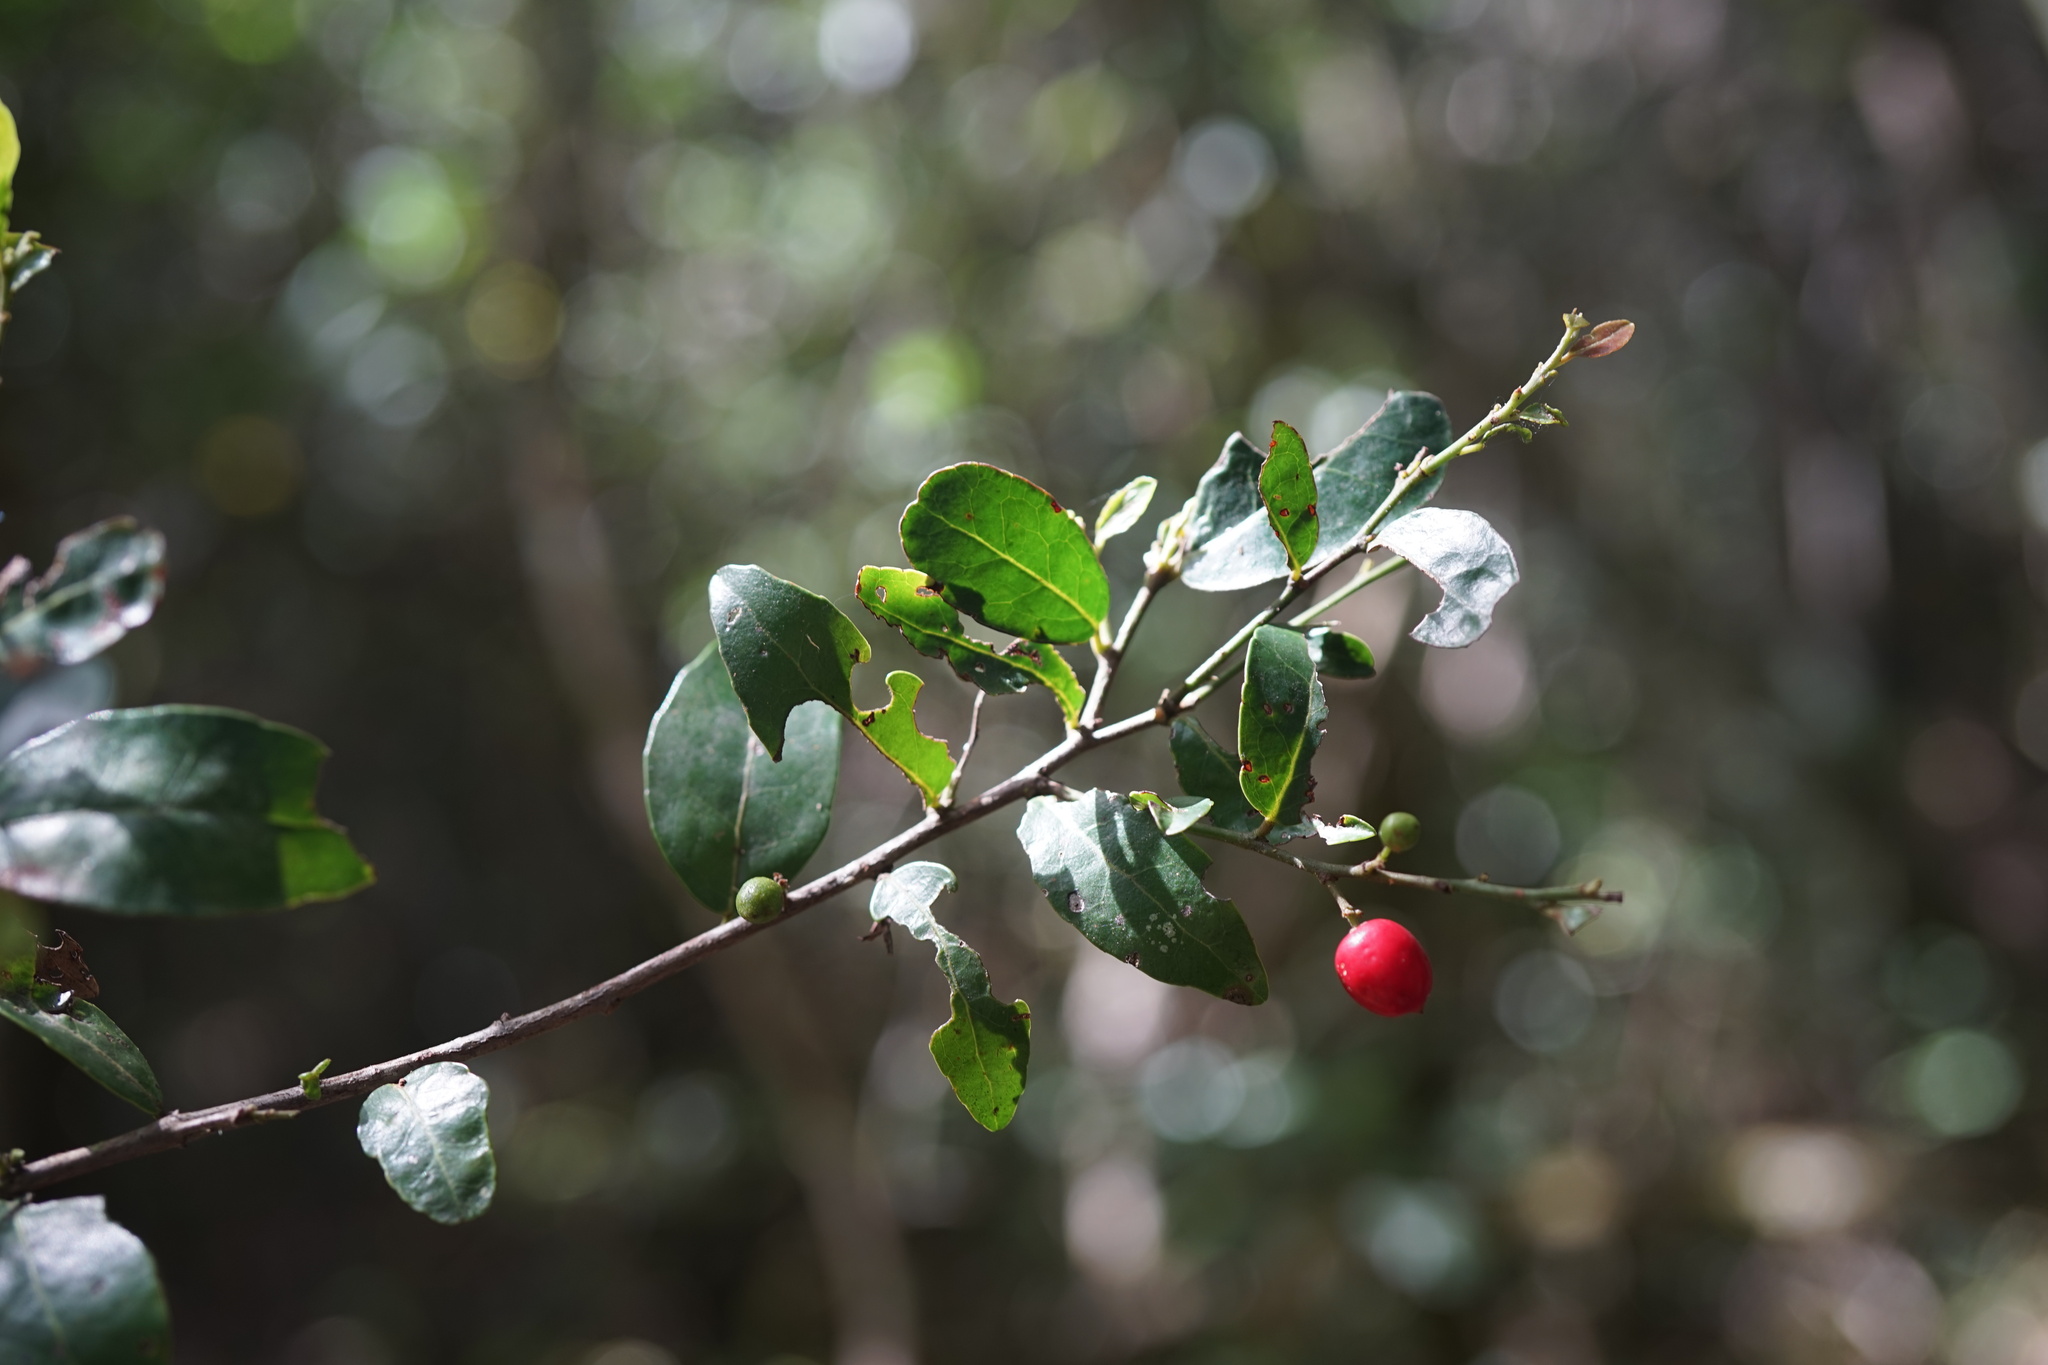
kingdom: Plantae
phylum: Tracheophyta
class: Magnoliopsida
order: Celastrales
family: Celastraceae
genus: Mystroxylon
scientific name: Mystroxylon aethiopicum
